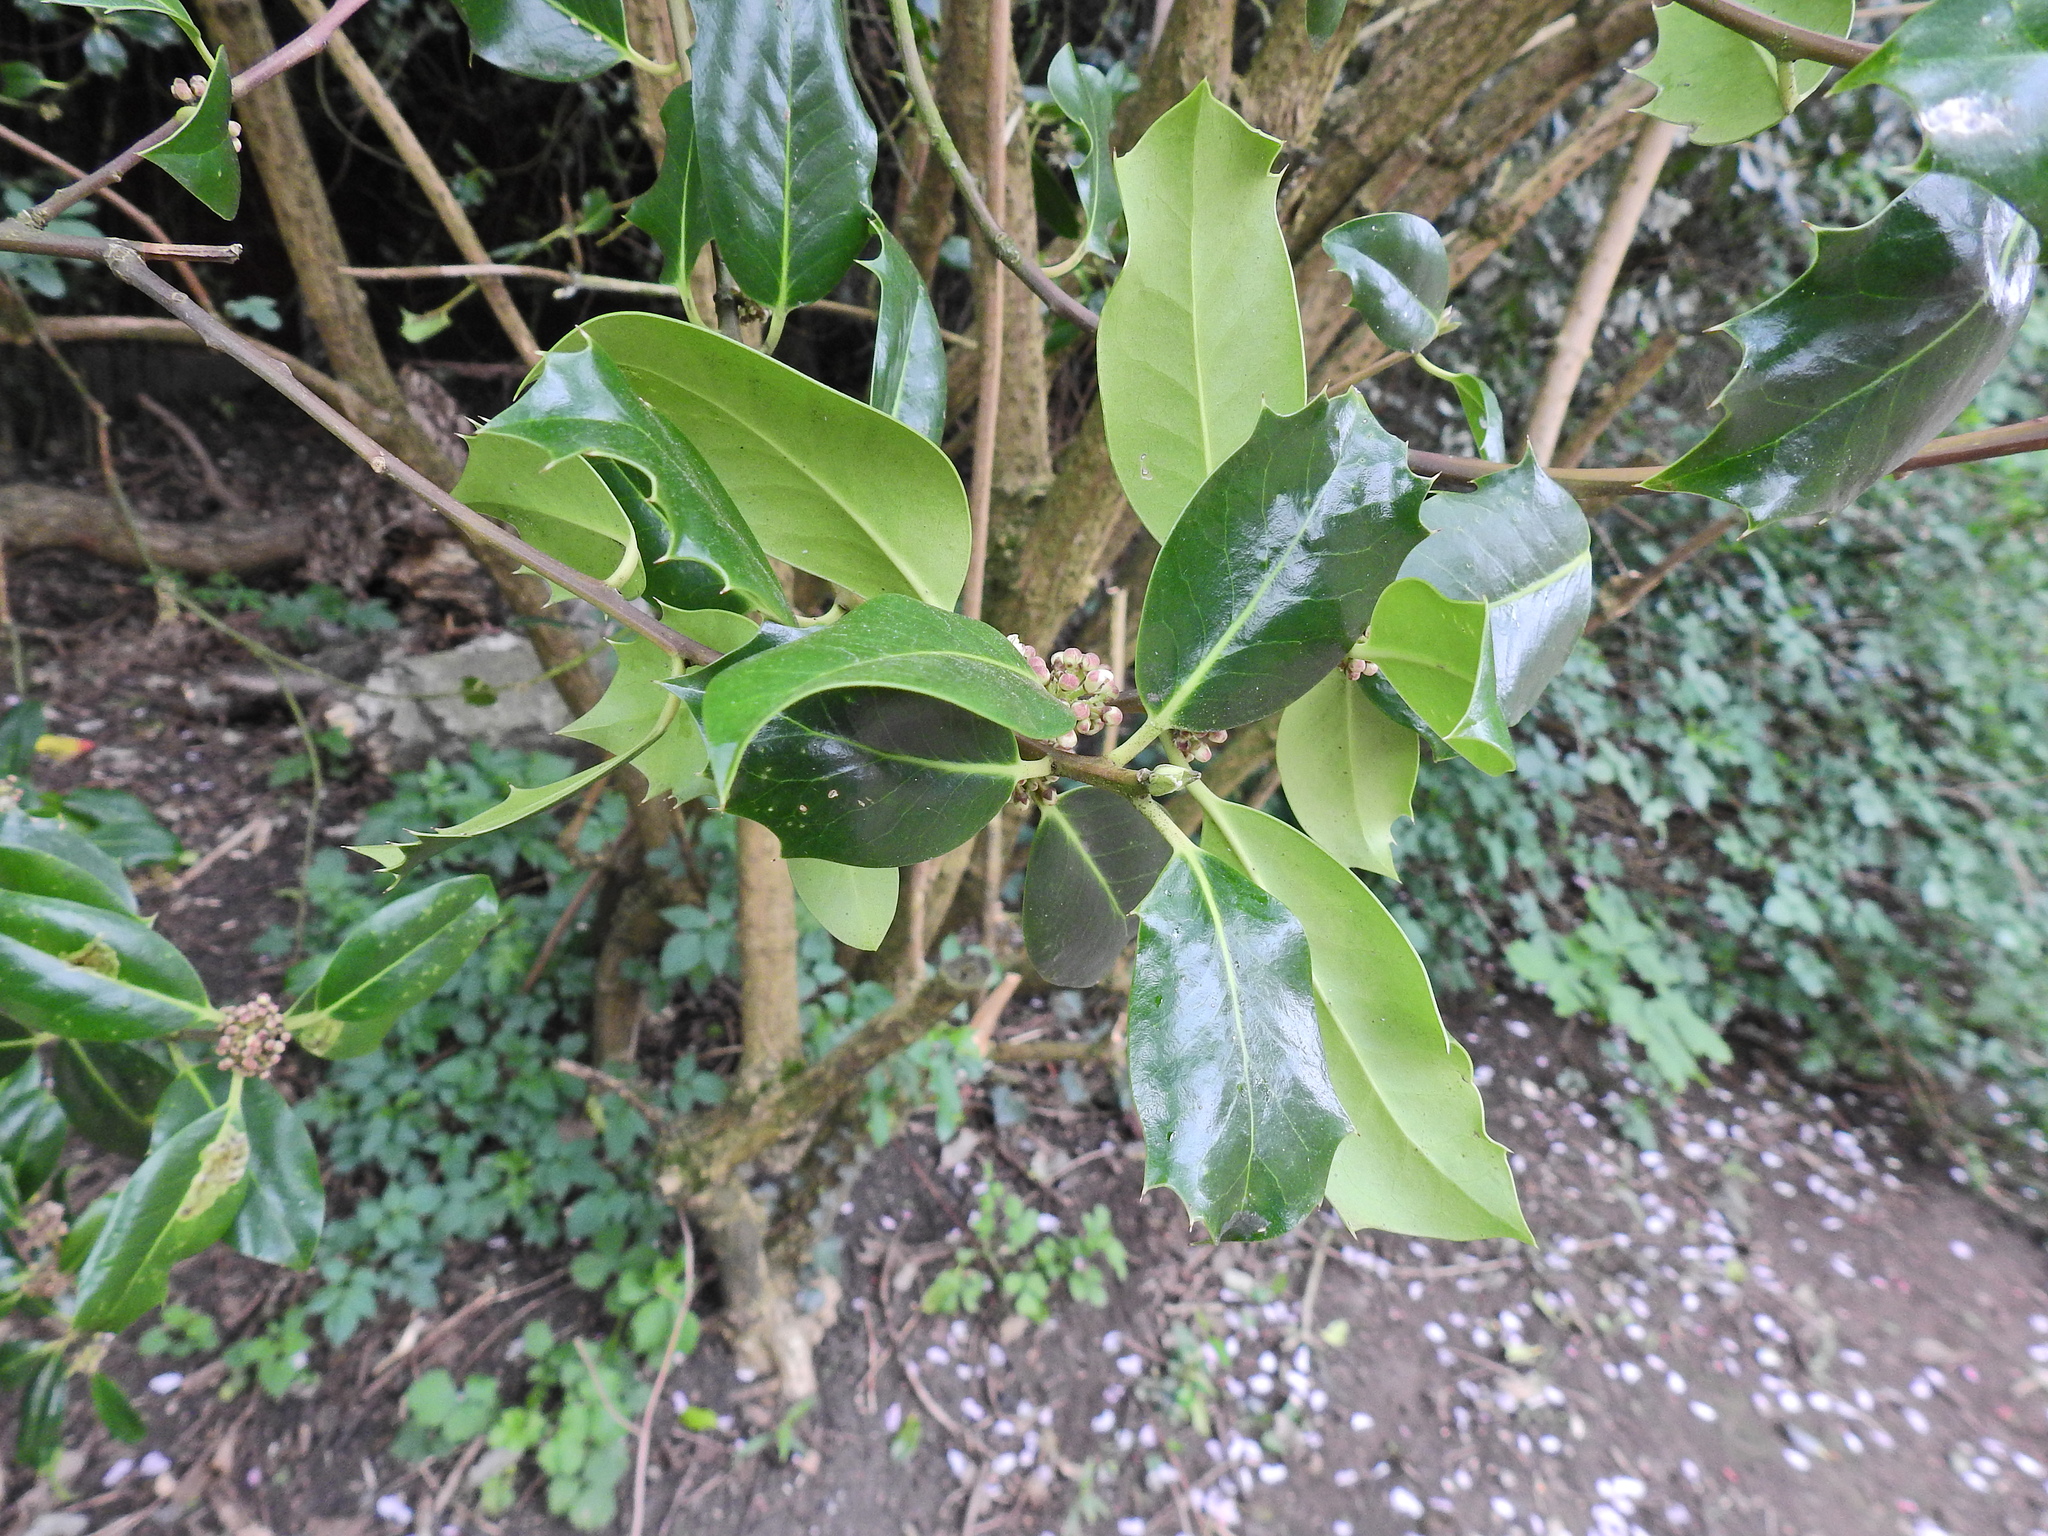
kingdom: Plantae
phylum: Tracheophyta
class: Magnoliopsida
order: Aquifoliales
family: Aquifoliaceae
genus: Ilex
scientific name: Ilex aquifolium
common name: English holly
